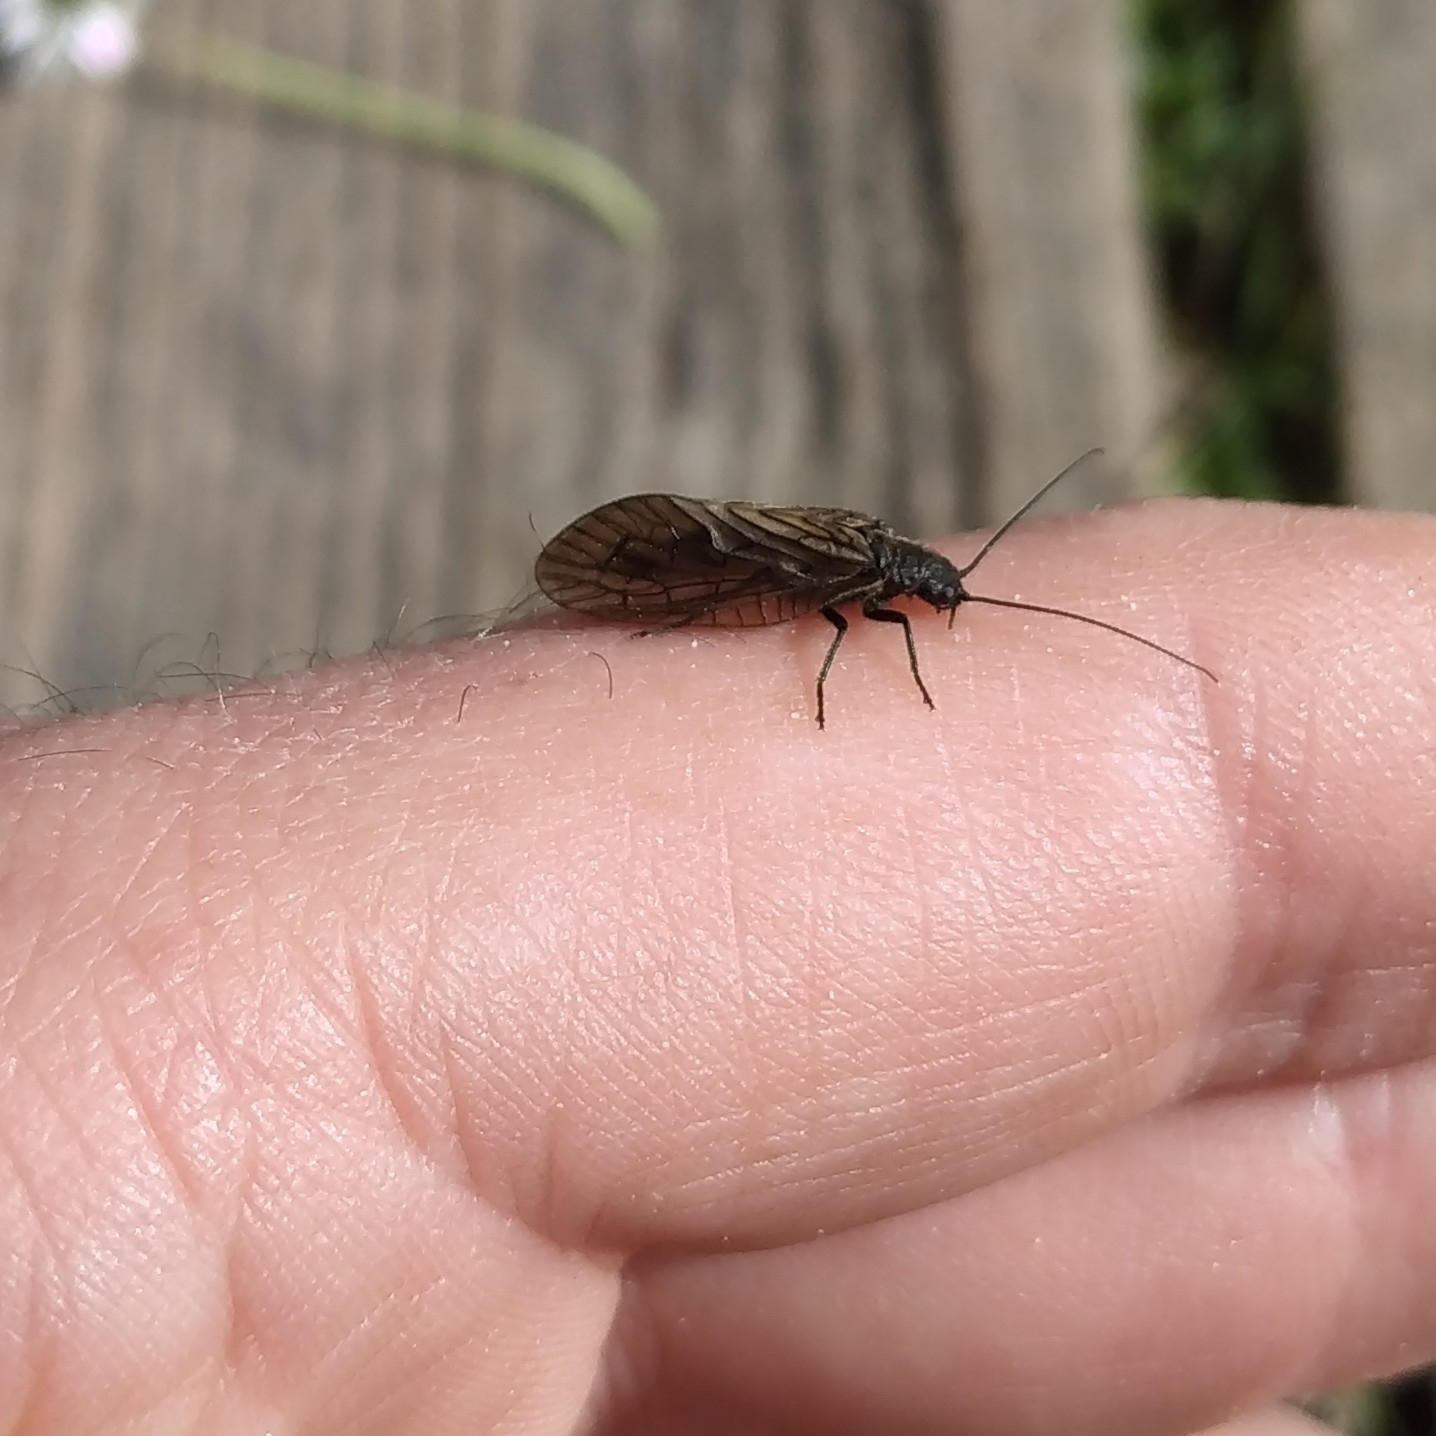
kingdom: Animalia
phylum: Arthropoda
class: Insecta
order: Megaloptera
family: Sialidae
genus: Sialis
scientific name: Sialis
